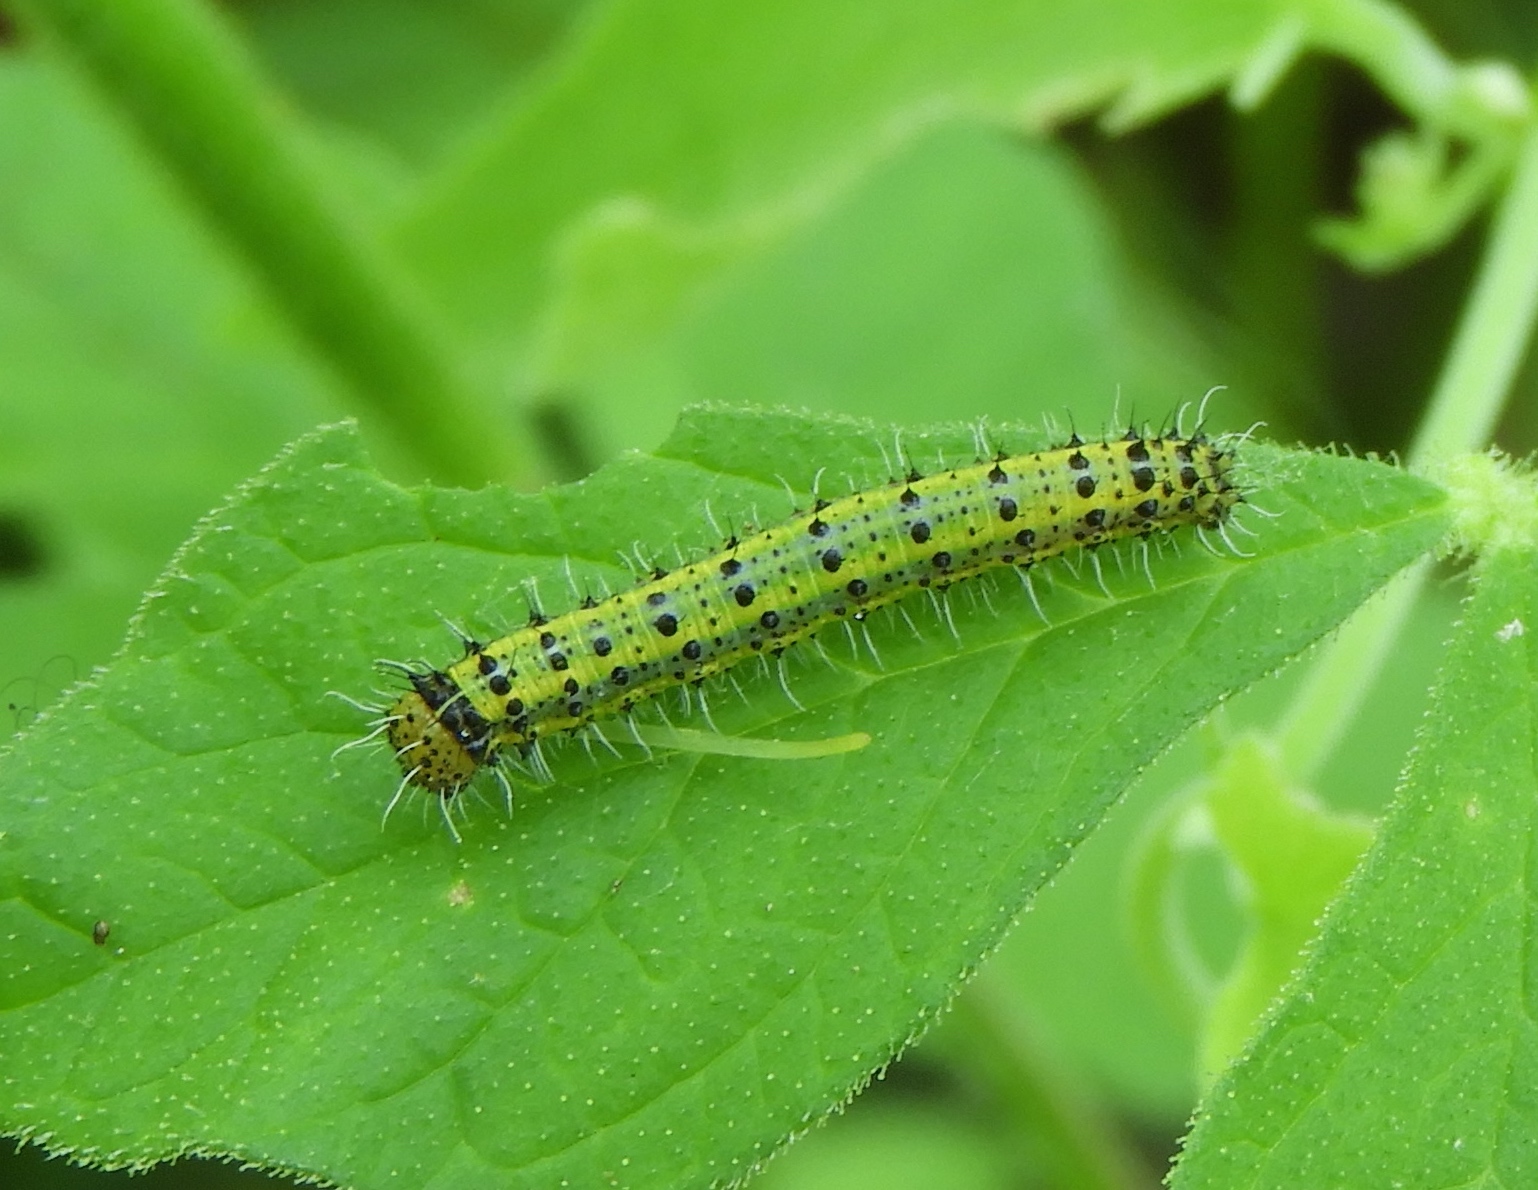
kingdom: Animalia
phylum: Arthropoda
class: Insecta
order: Lepidoptera
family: Pieridae
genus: Ascia
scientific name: Ascia monuste
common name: Great southern white
